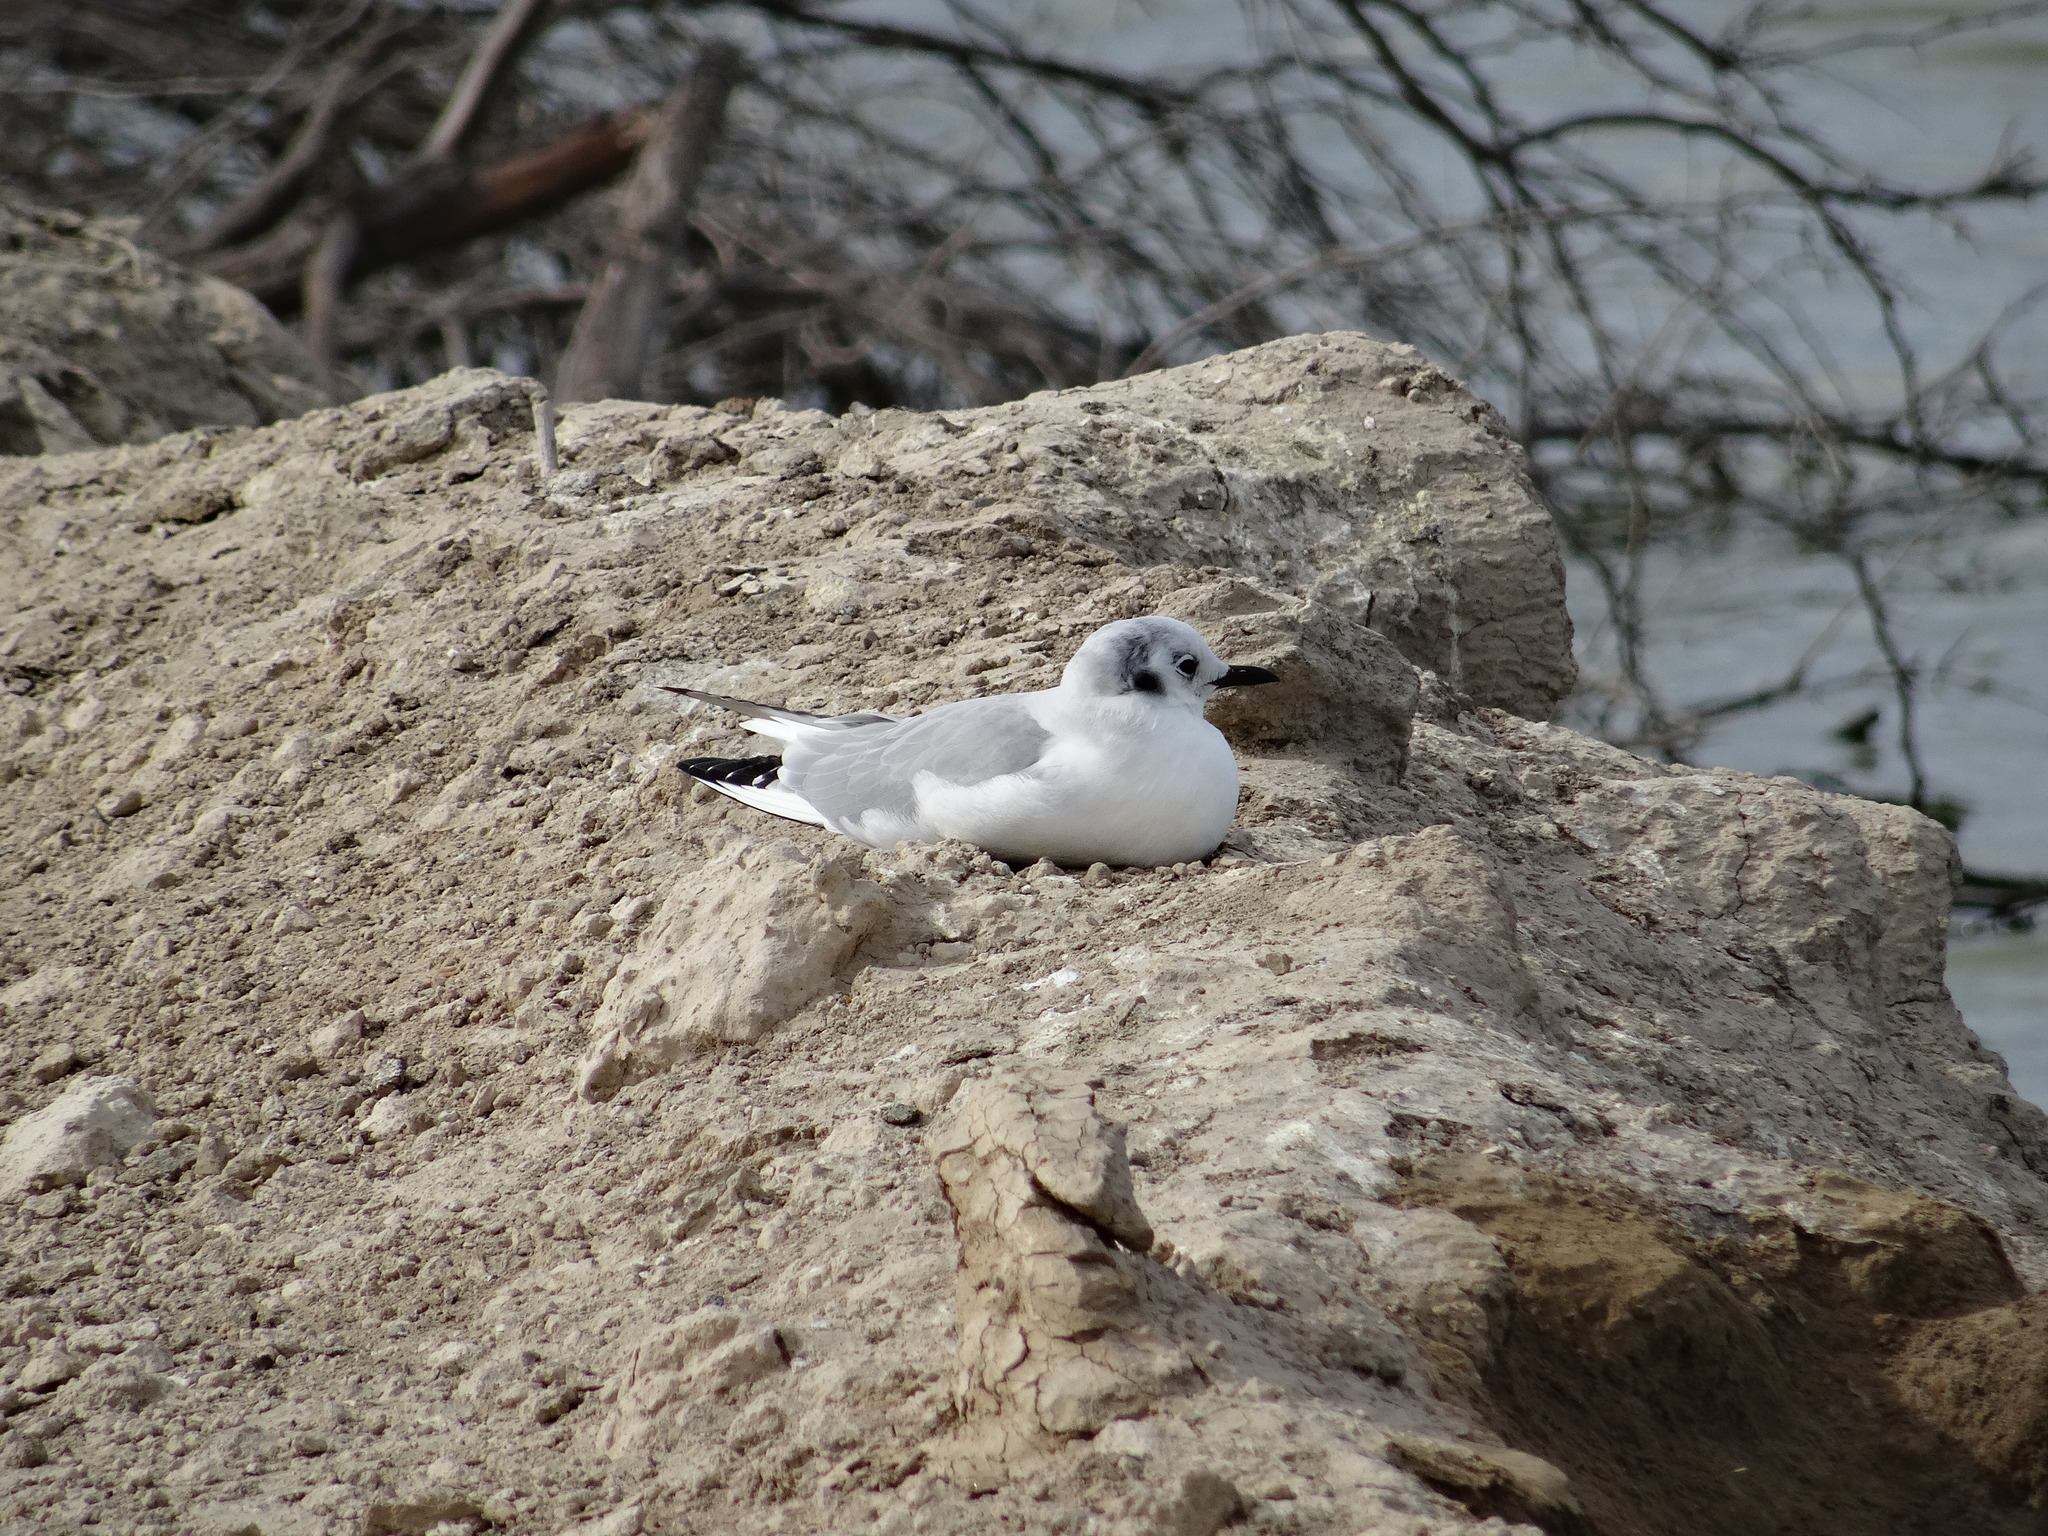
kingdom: Animalia
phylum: Chordata
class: Aves
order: Charadriiformes
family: Laridae
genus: Chroicocephalus
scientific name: Chroicocephalus philadelphia
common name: Bonaparte's gull
